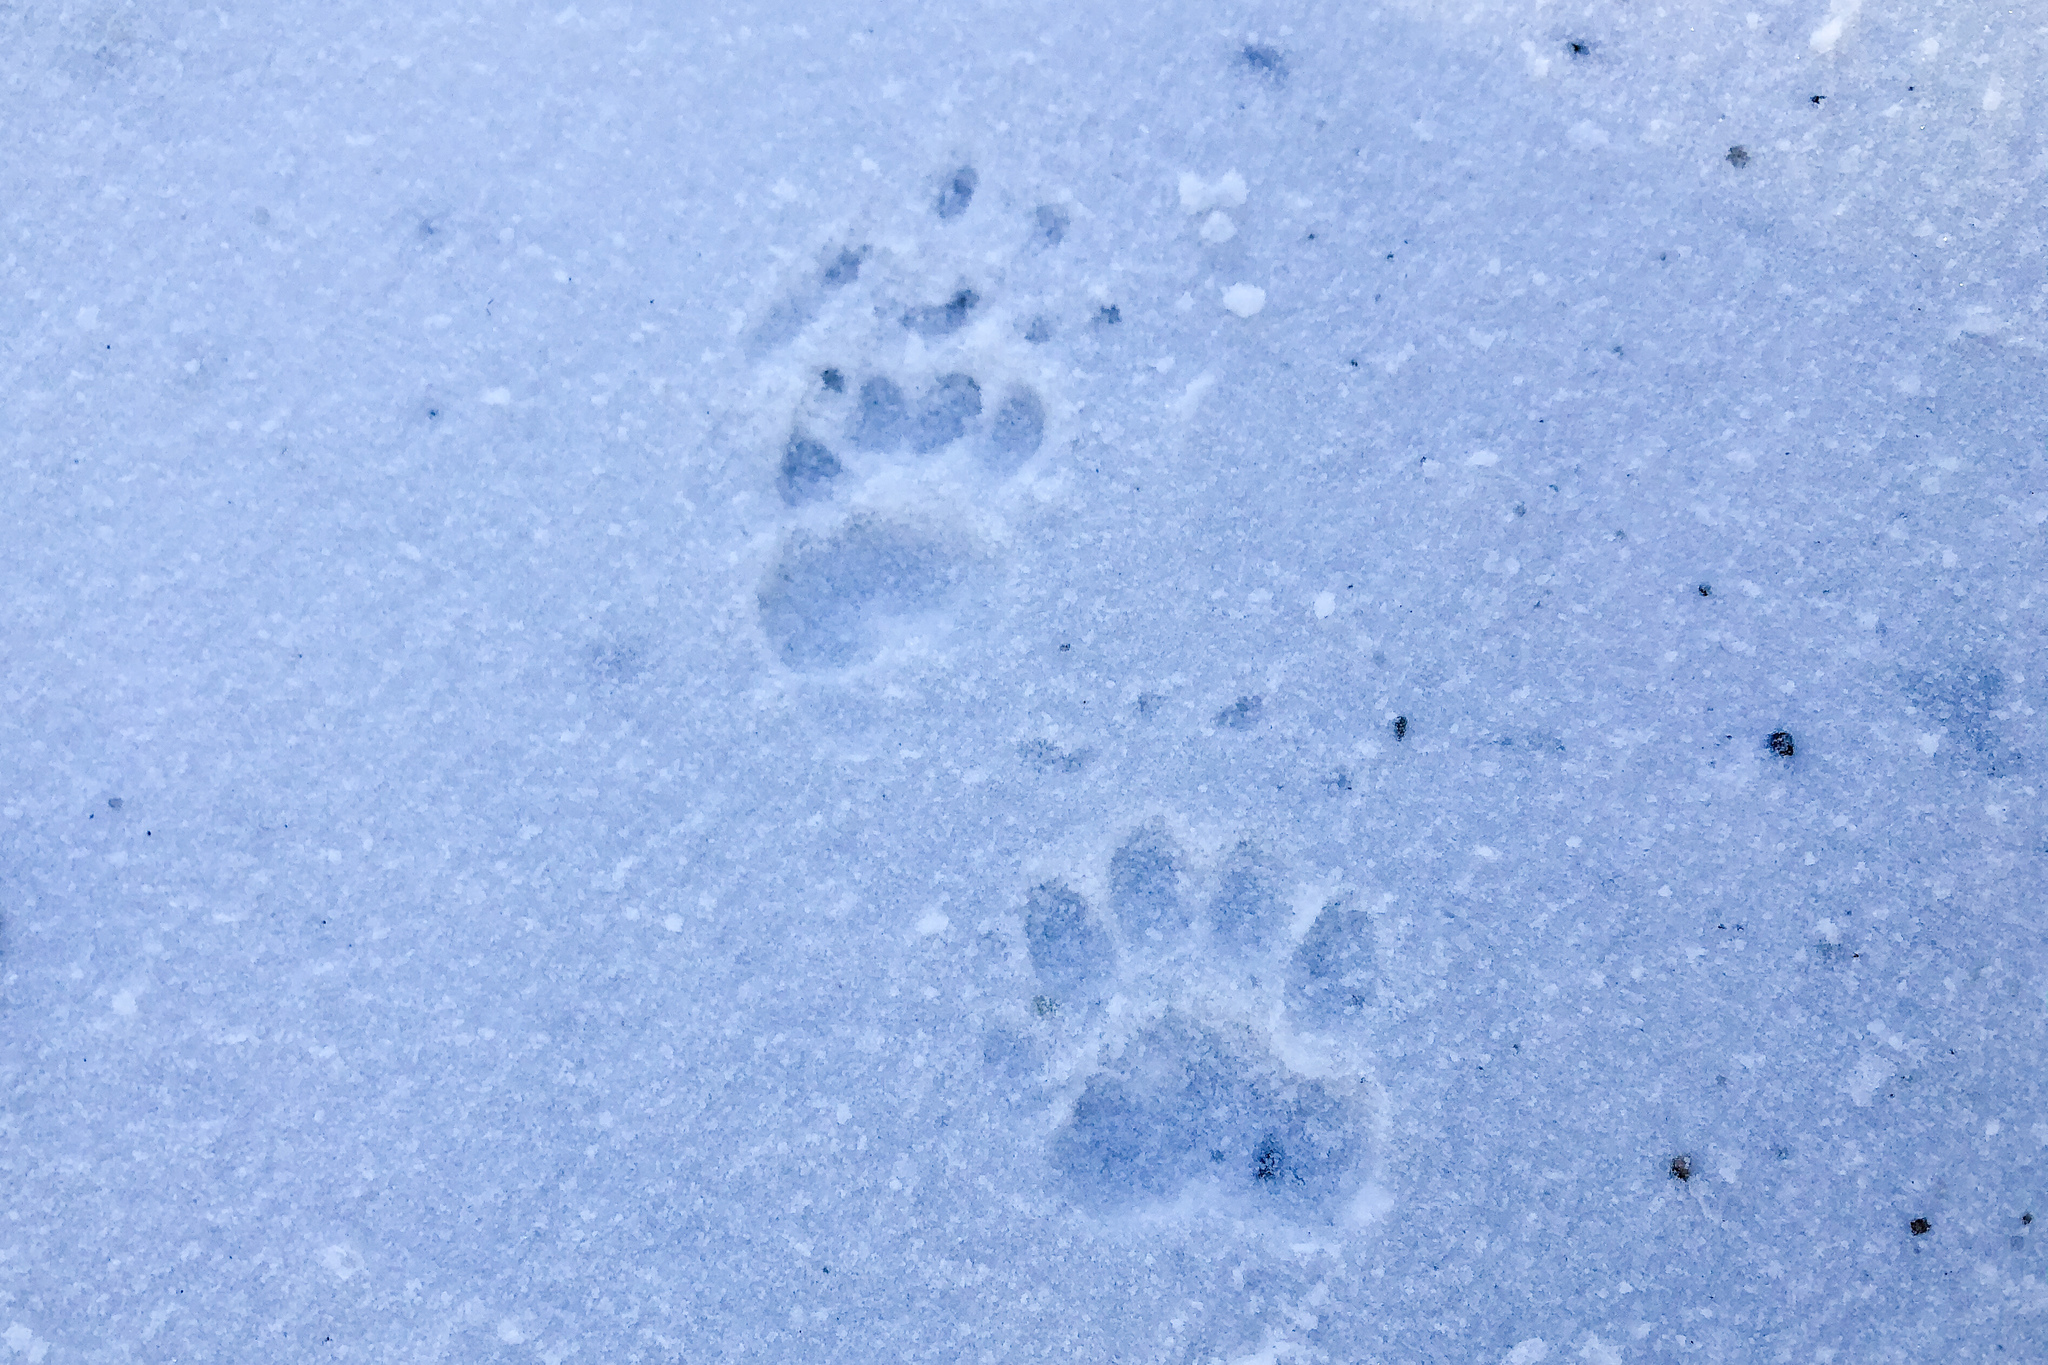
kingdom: Animalia
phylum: Chordata
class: Mammalia
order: Carnivora
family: Mustelidae
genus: Meles
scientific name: Meles meles
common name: Eurasian badger
